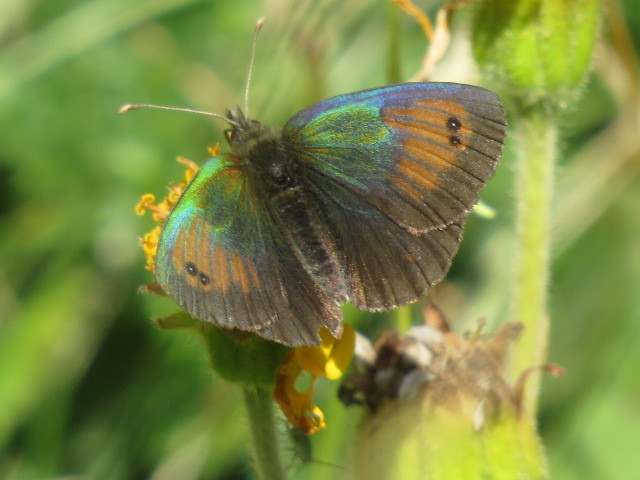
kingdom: Animalia
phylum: Arthropoda
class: Insecta
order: Lepidoptera
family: Nymphalidae
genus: Erebia
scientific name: Erebia tyndarus
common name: Swiss brassy ringlet
